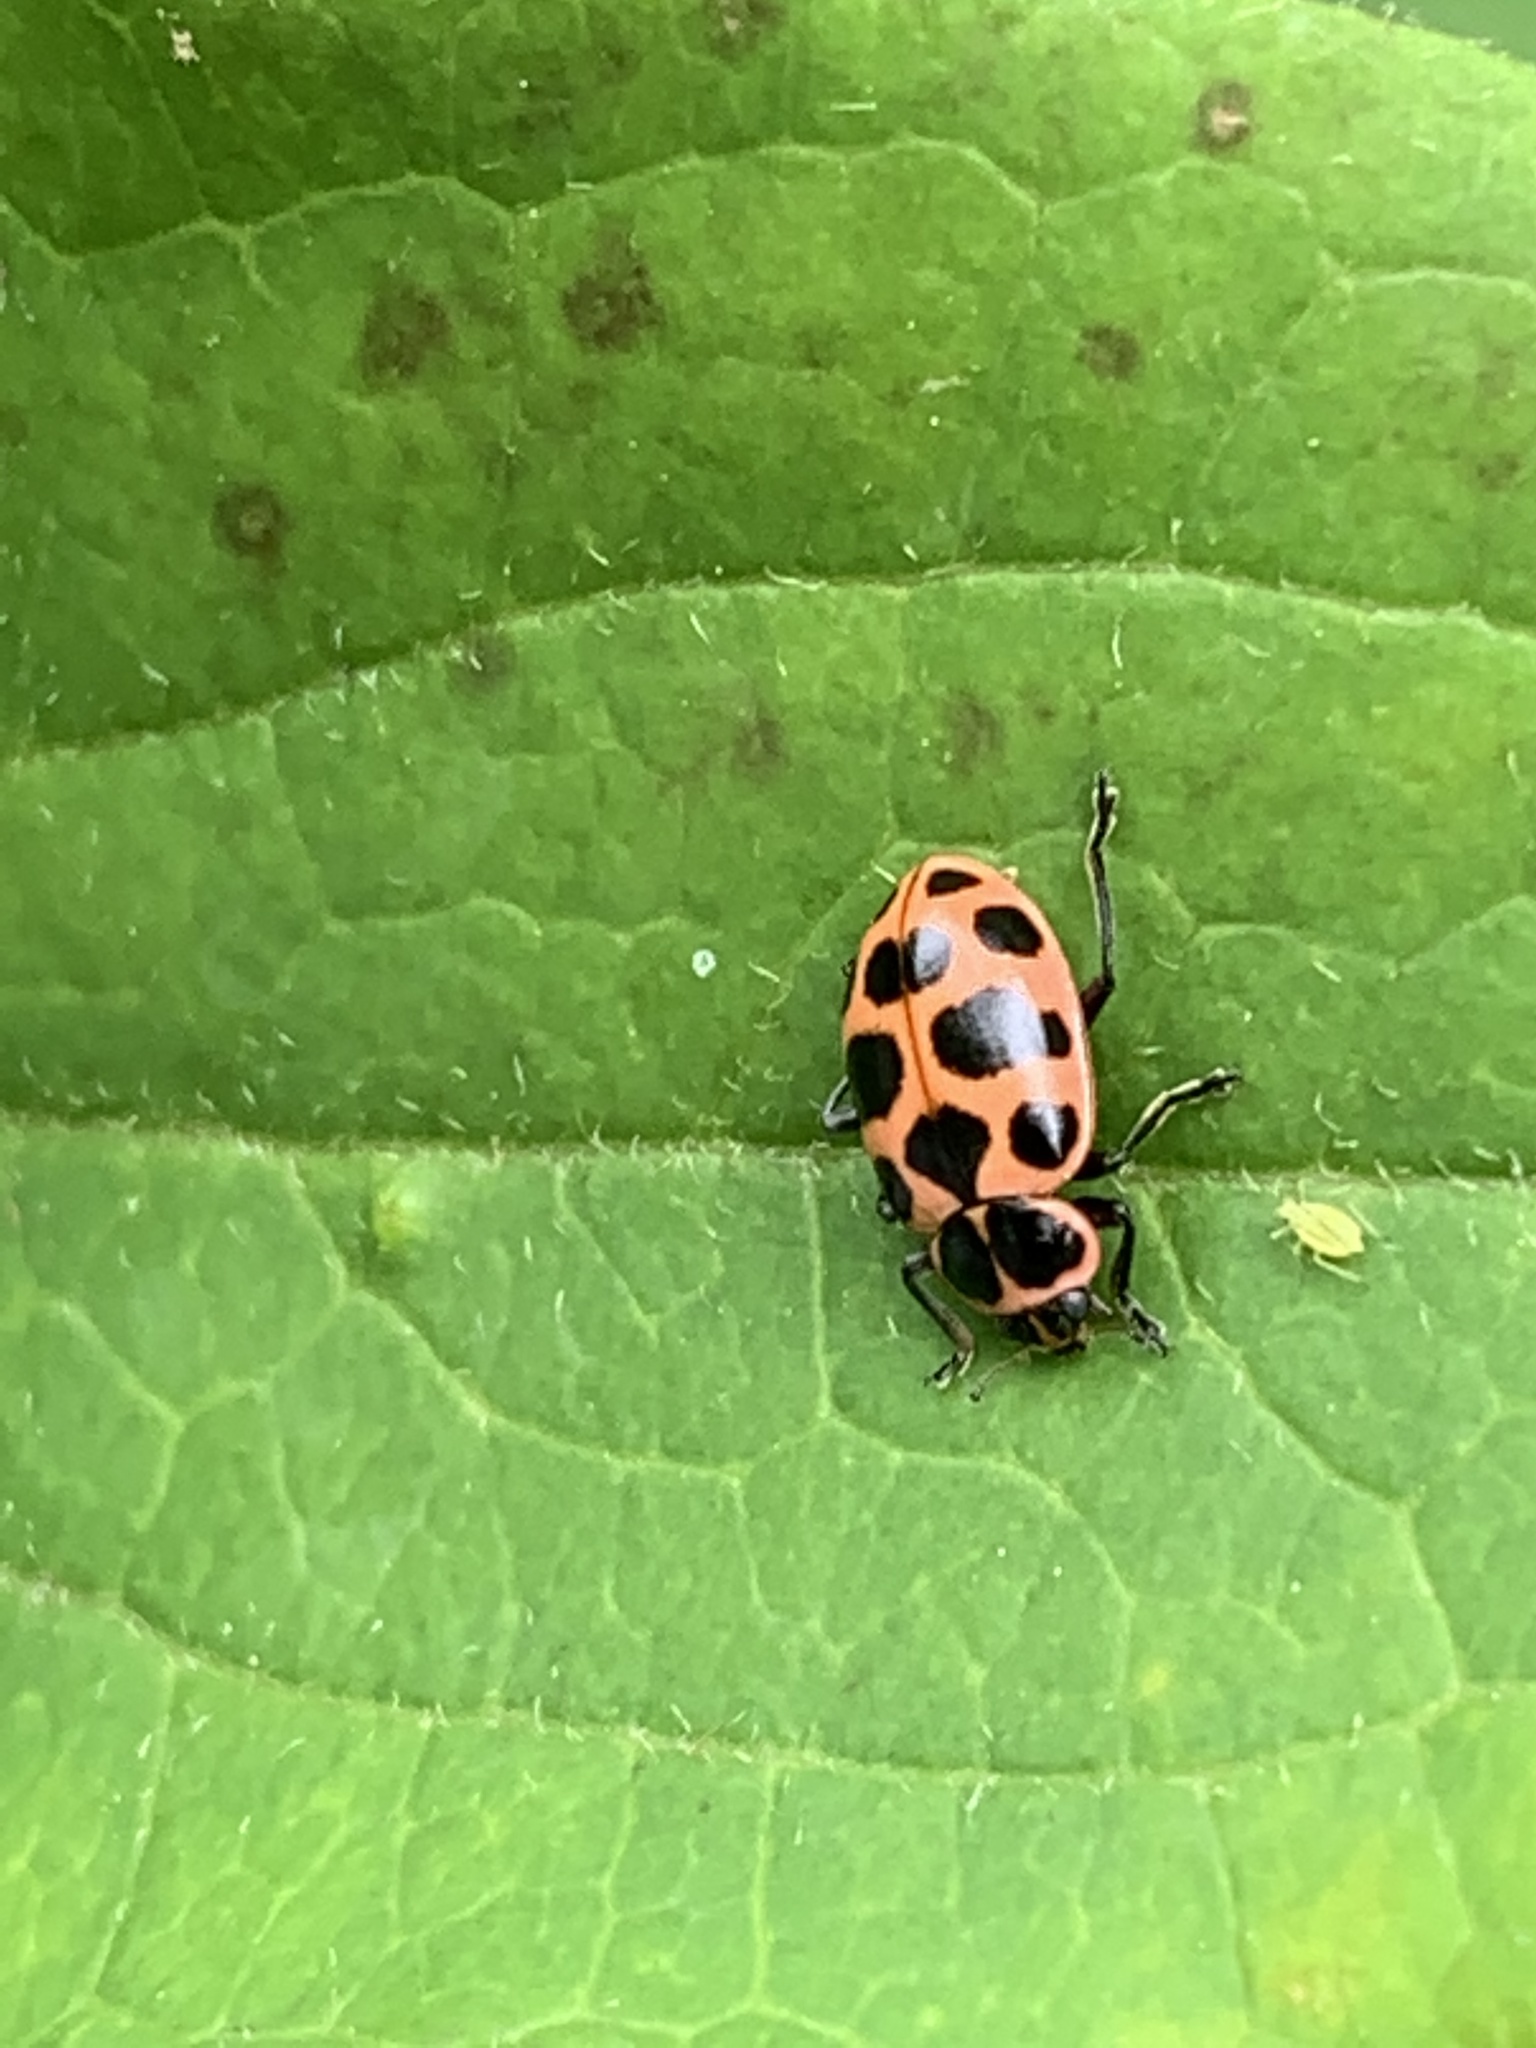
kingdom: Animalia
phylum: Arthropoda
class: Insecta
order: Coleoptera
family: Coccinellidae
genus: Coleomegilla
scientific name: Coleomegilla maculata
